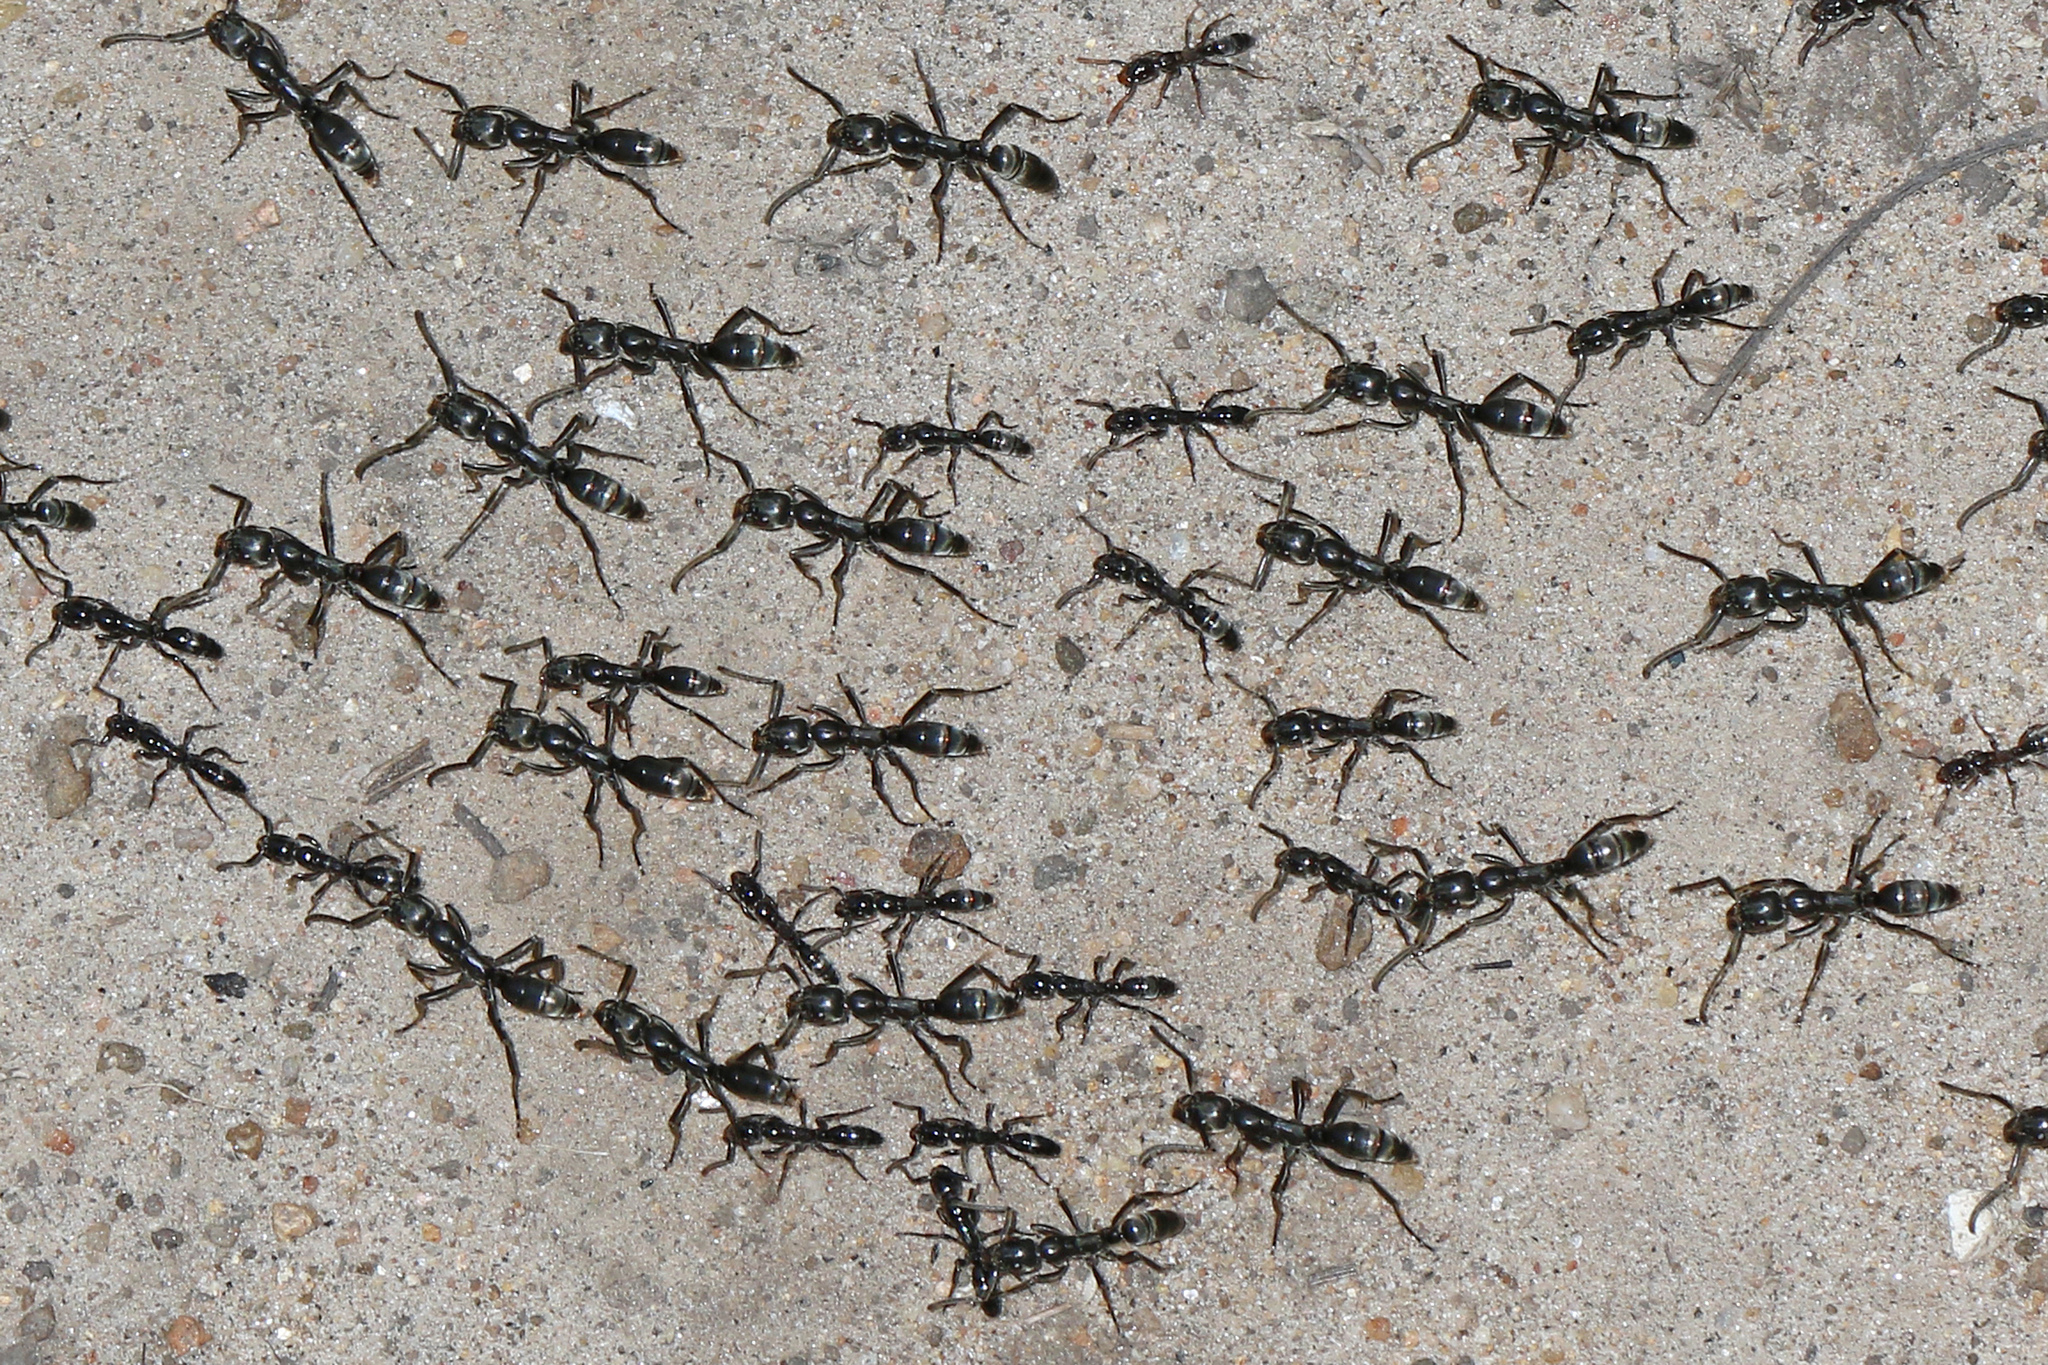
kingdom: Animalia
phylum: Arthropoda
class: Insecta
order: Hymenoptera
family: Formicidae
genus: Megaponera
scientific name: Megaponera analis
